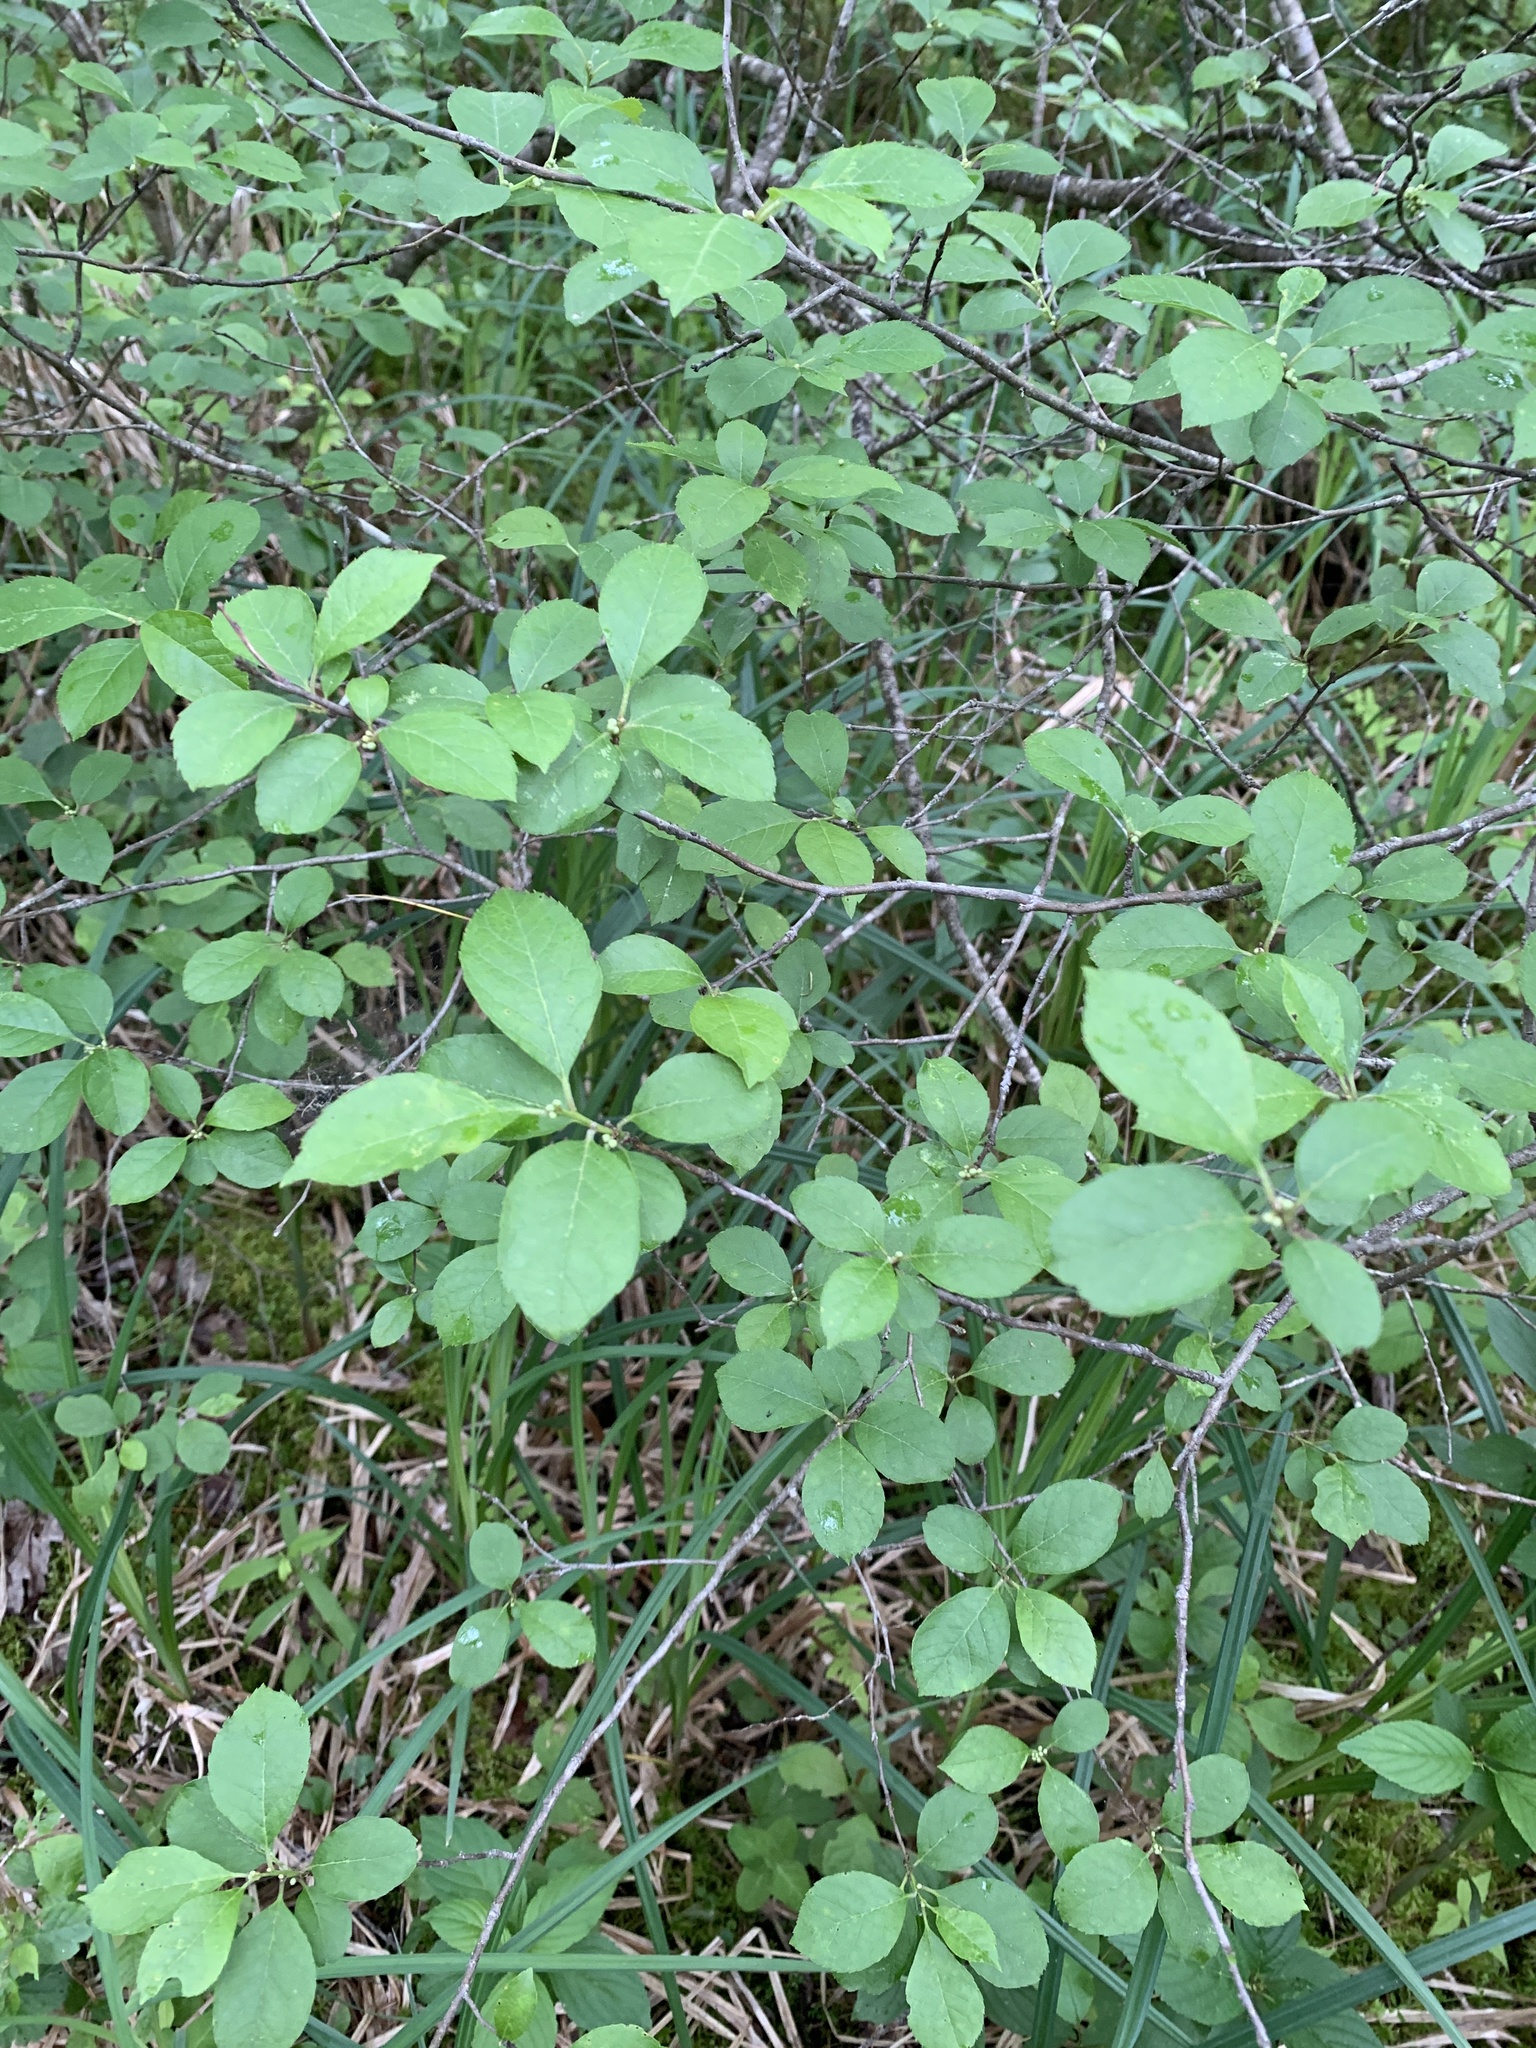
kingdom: Plantae
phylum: Tracheophyta
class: Magnoliopsida
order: Aquifoliales
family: Aquifoliaceae
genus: Ilex
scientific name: Ilex verticillata
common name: Virginia winterberry
